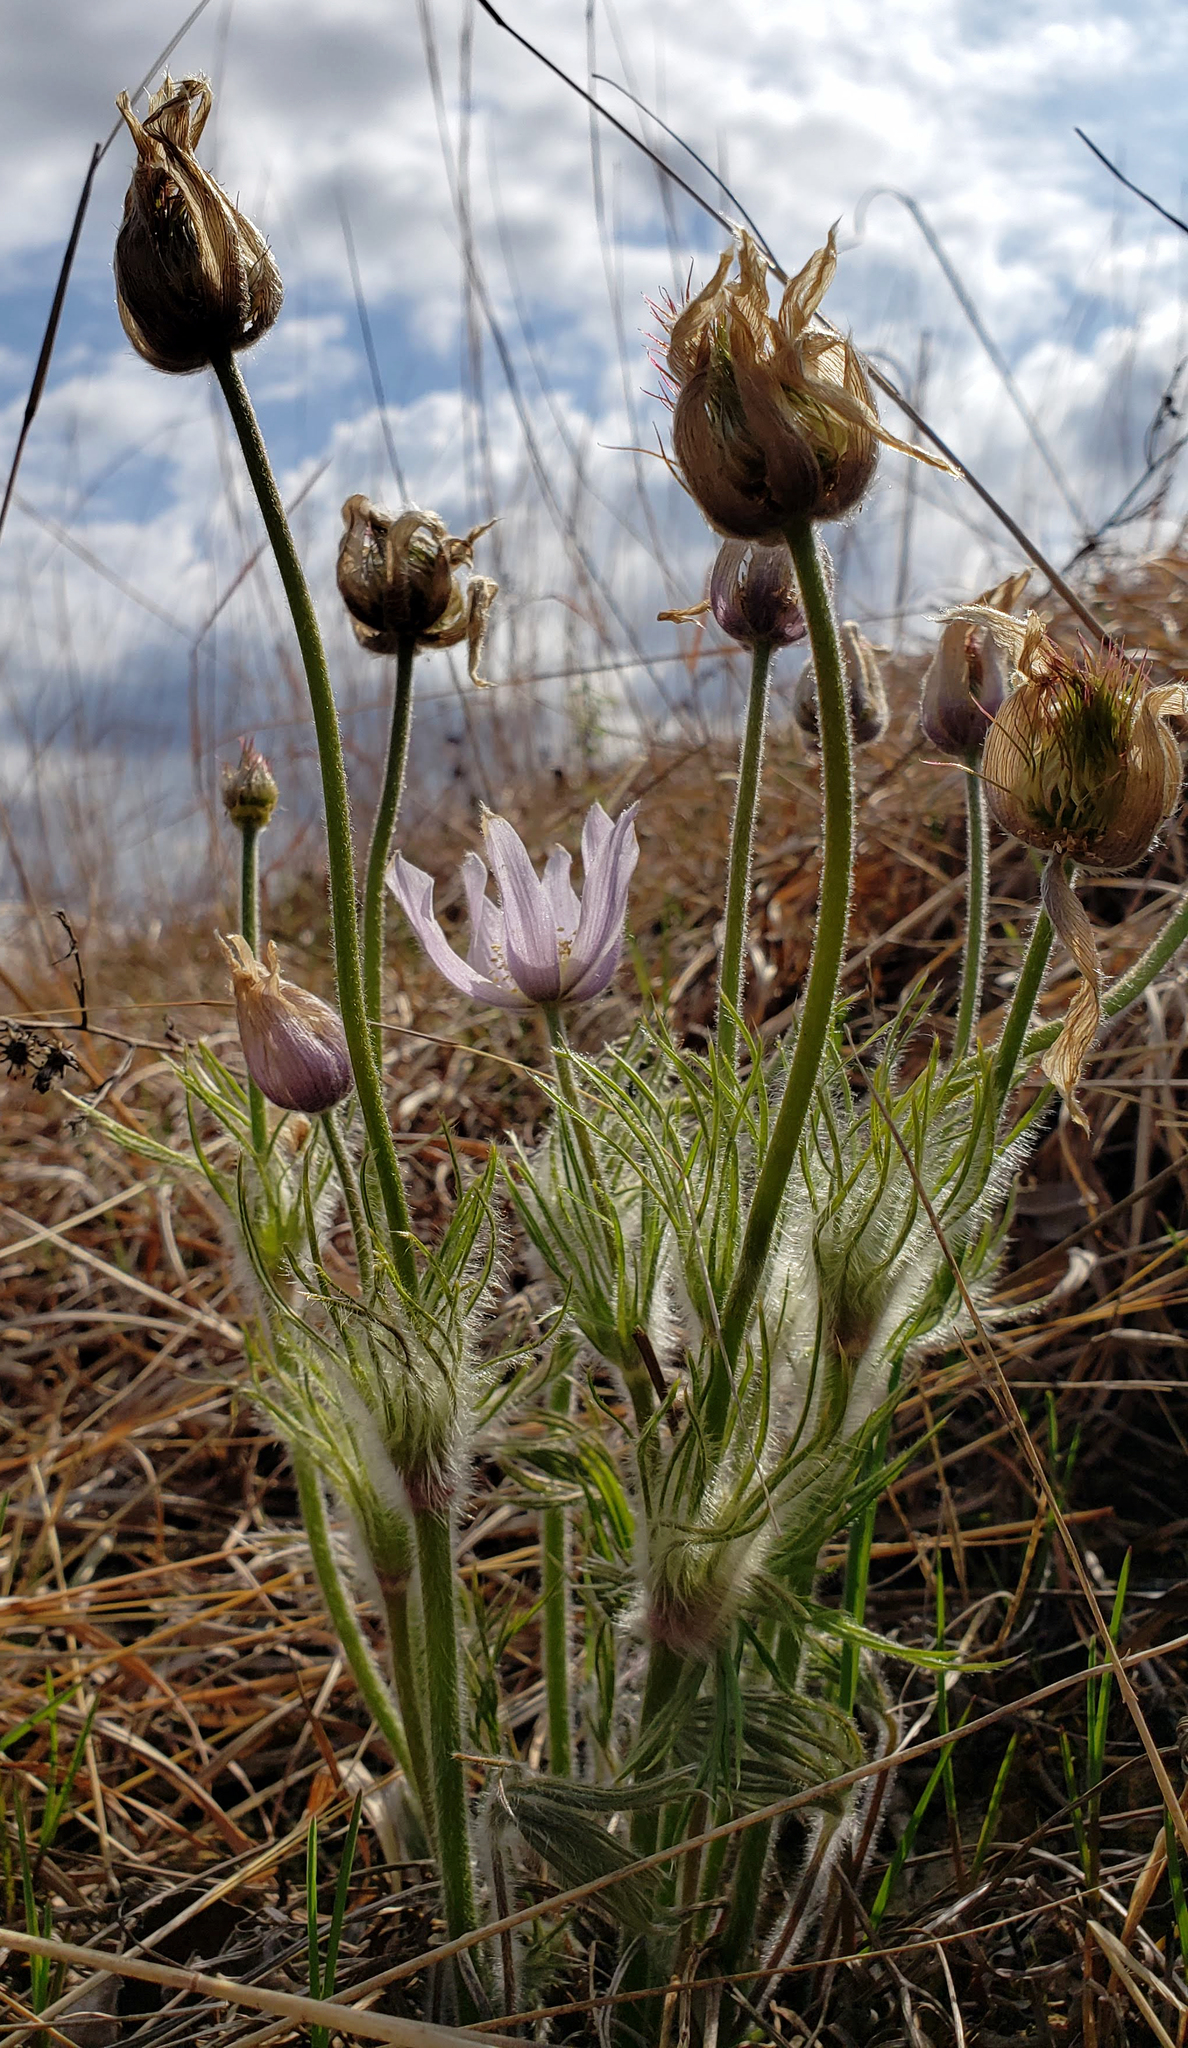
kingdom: Plantae
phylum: Tracheophyta
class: Magnoliopsida
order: Ranunculales
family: Ranunculaceae
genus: Pulsatilla
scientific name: Pulsatilla nuttalliana
